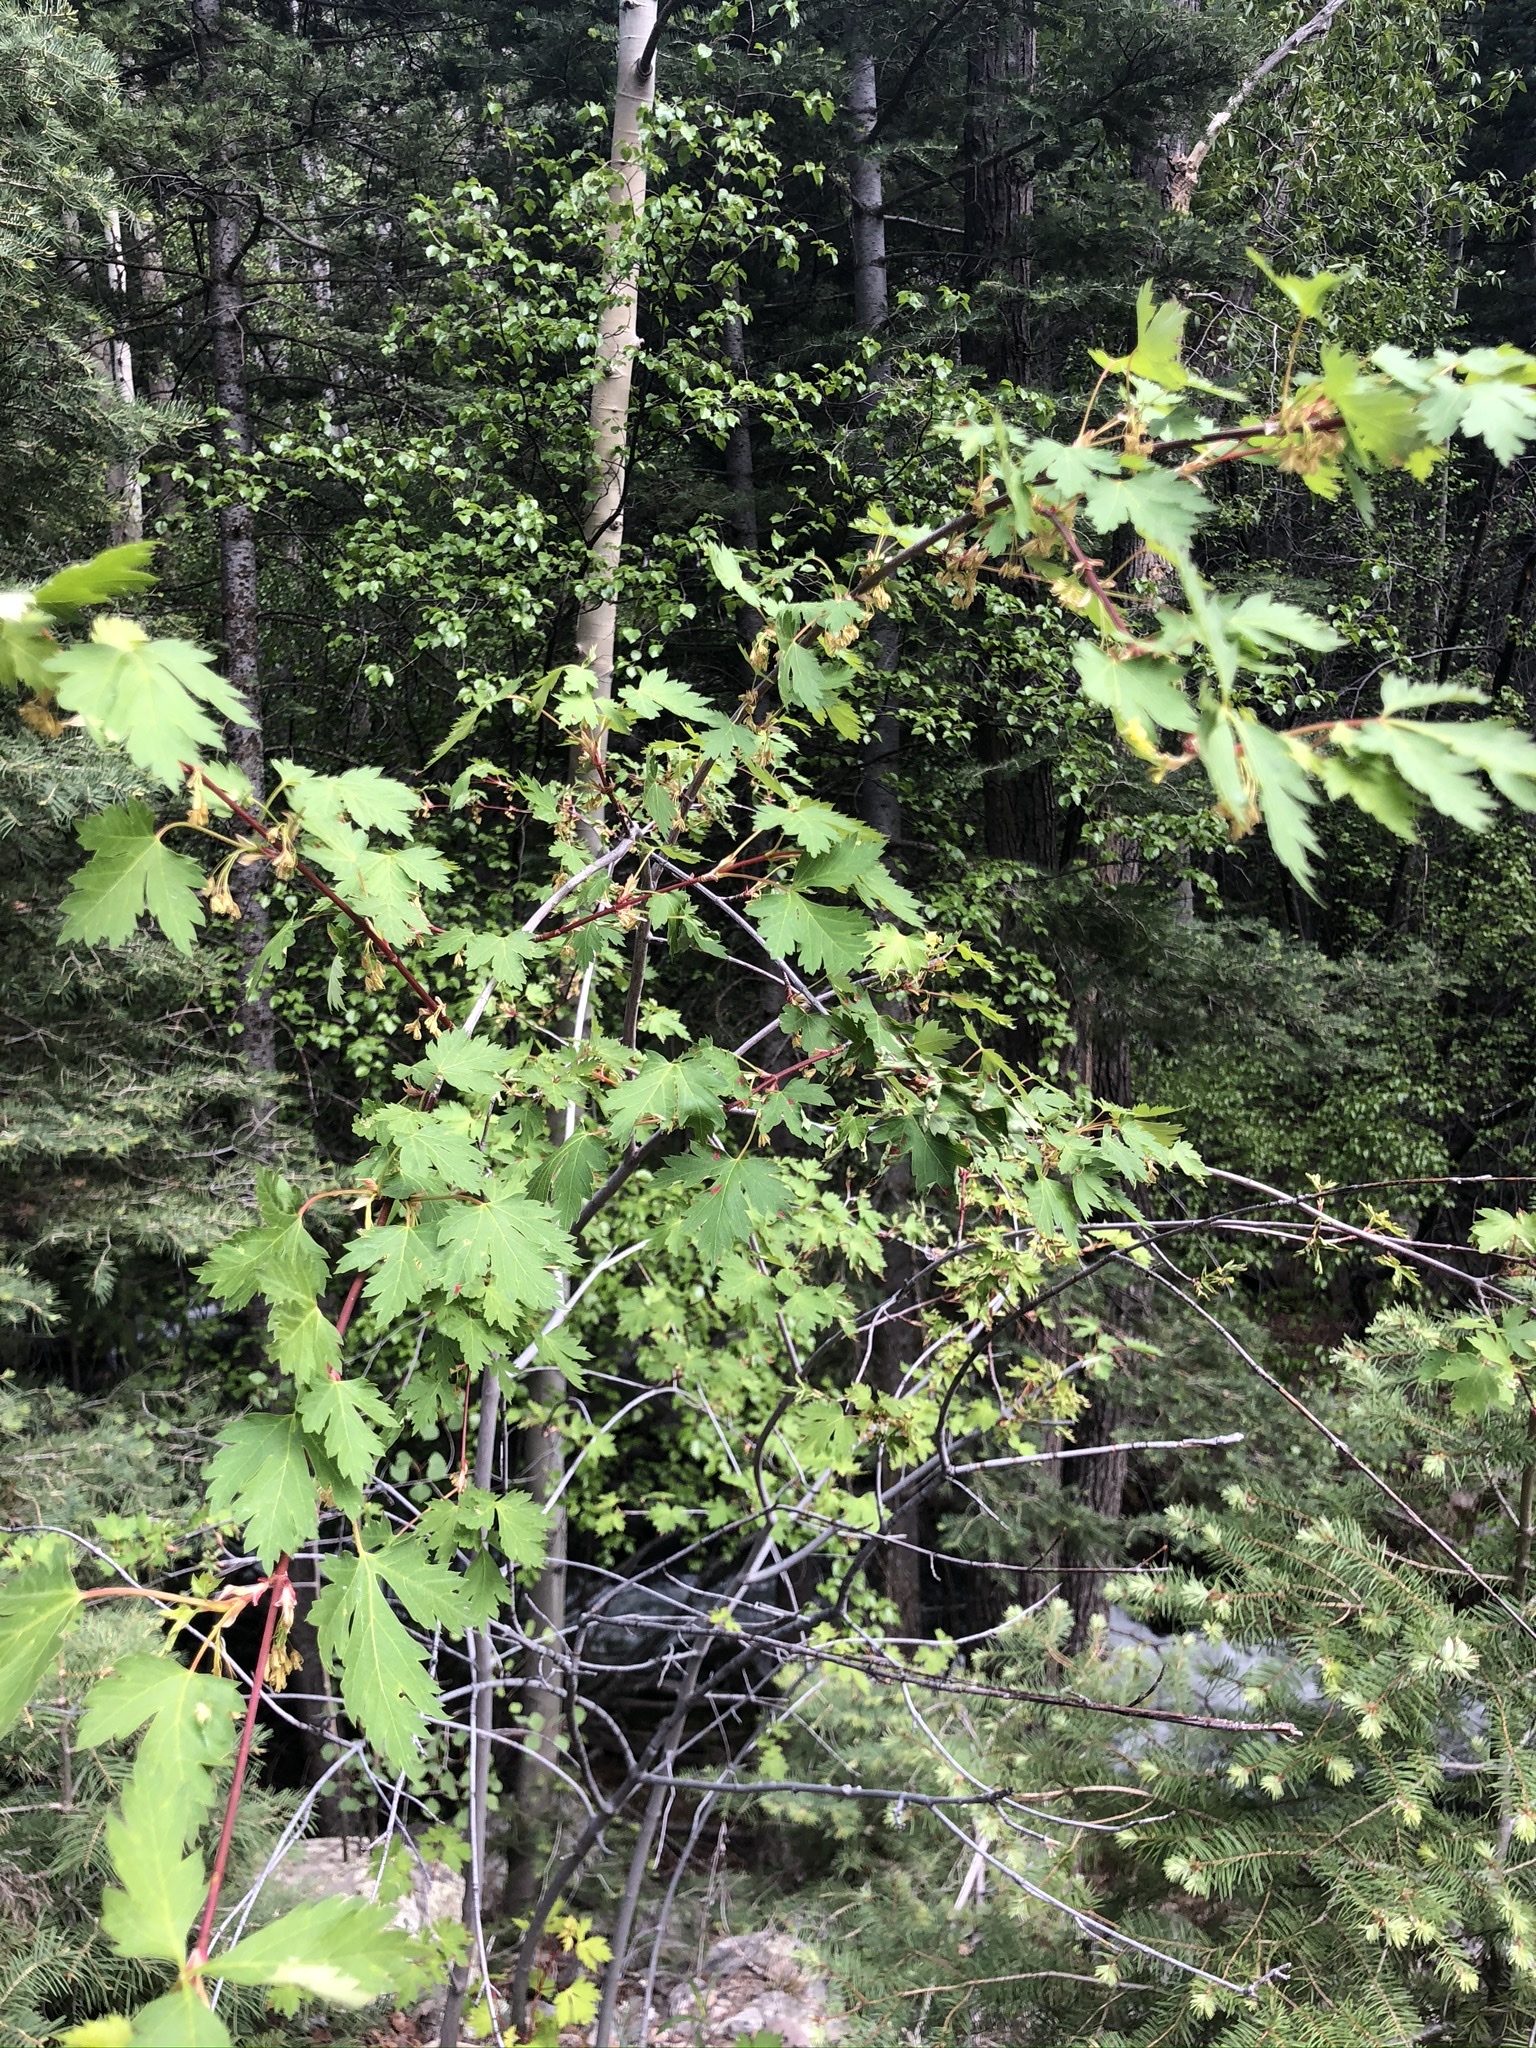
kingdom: Plantae
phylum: Tracheophyta
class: Magnoliopsida
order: Sapindales
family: Sapindaceae
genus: Acer
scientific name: Acer glabrum
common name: Rocky mountain maple
